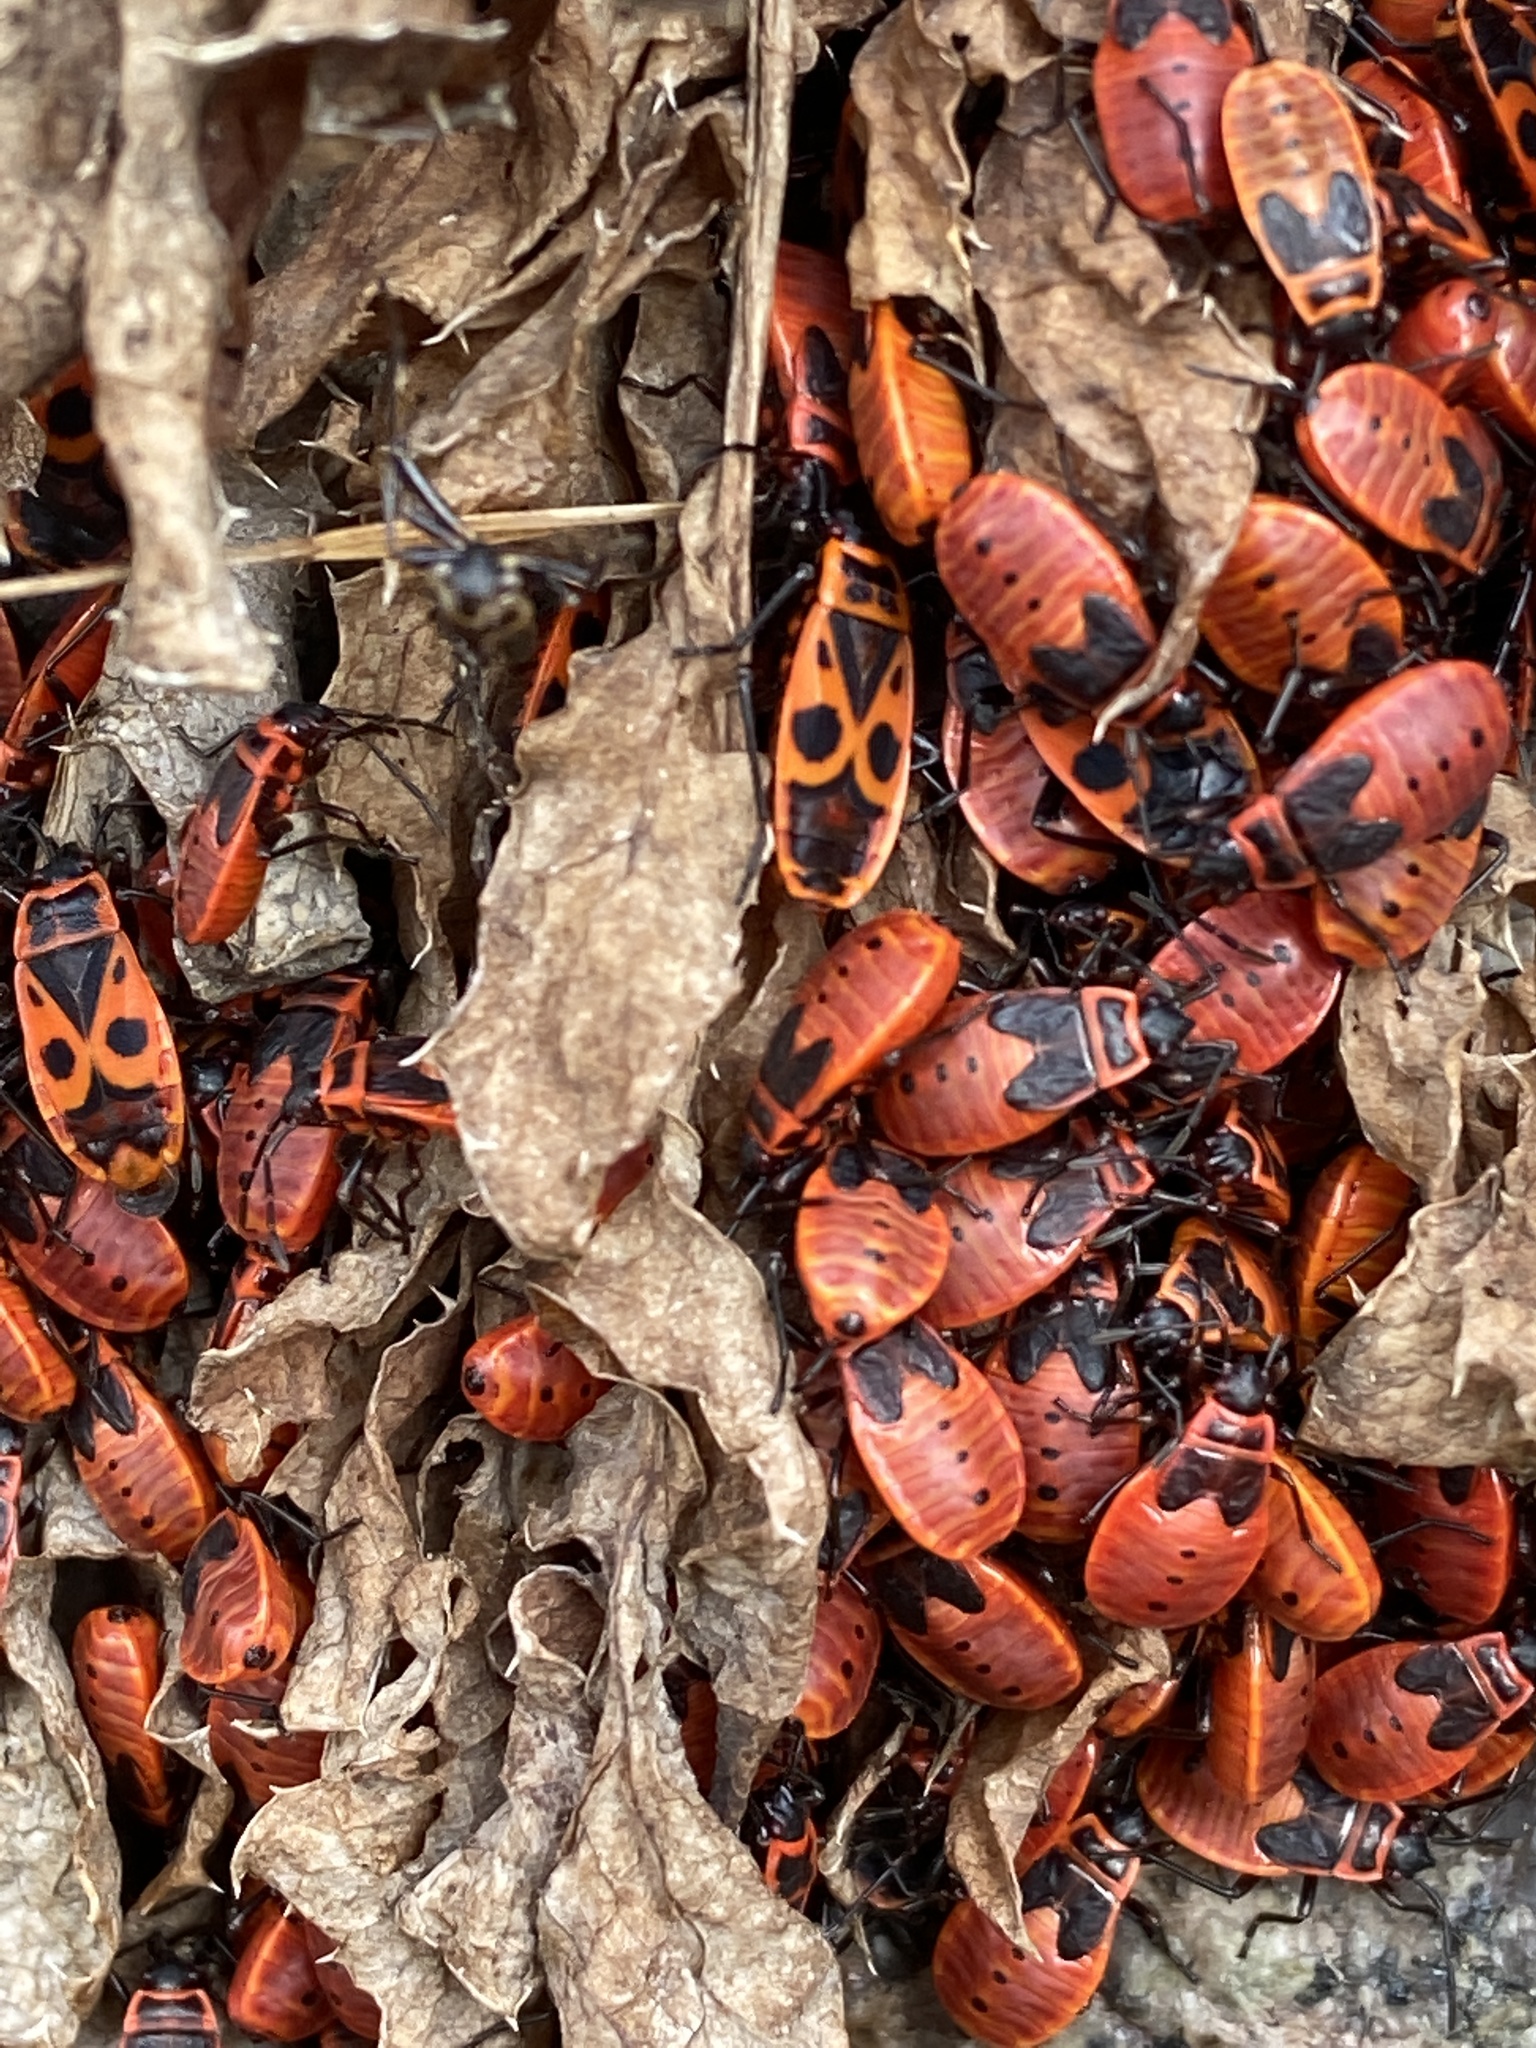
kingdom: Animalia
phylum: Arthropoda
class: Insecta
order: Hemiptera
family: Pyrrhocoridae
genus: Pyrrhocoris
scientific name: Pyrrhocoris apterus
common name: Firebug
